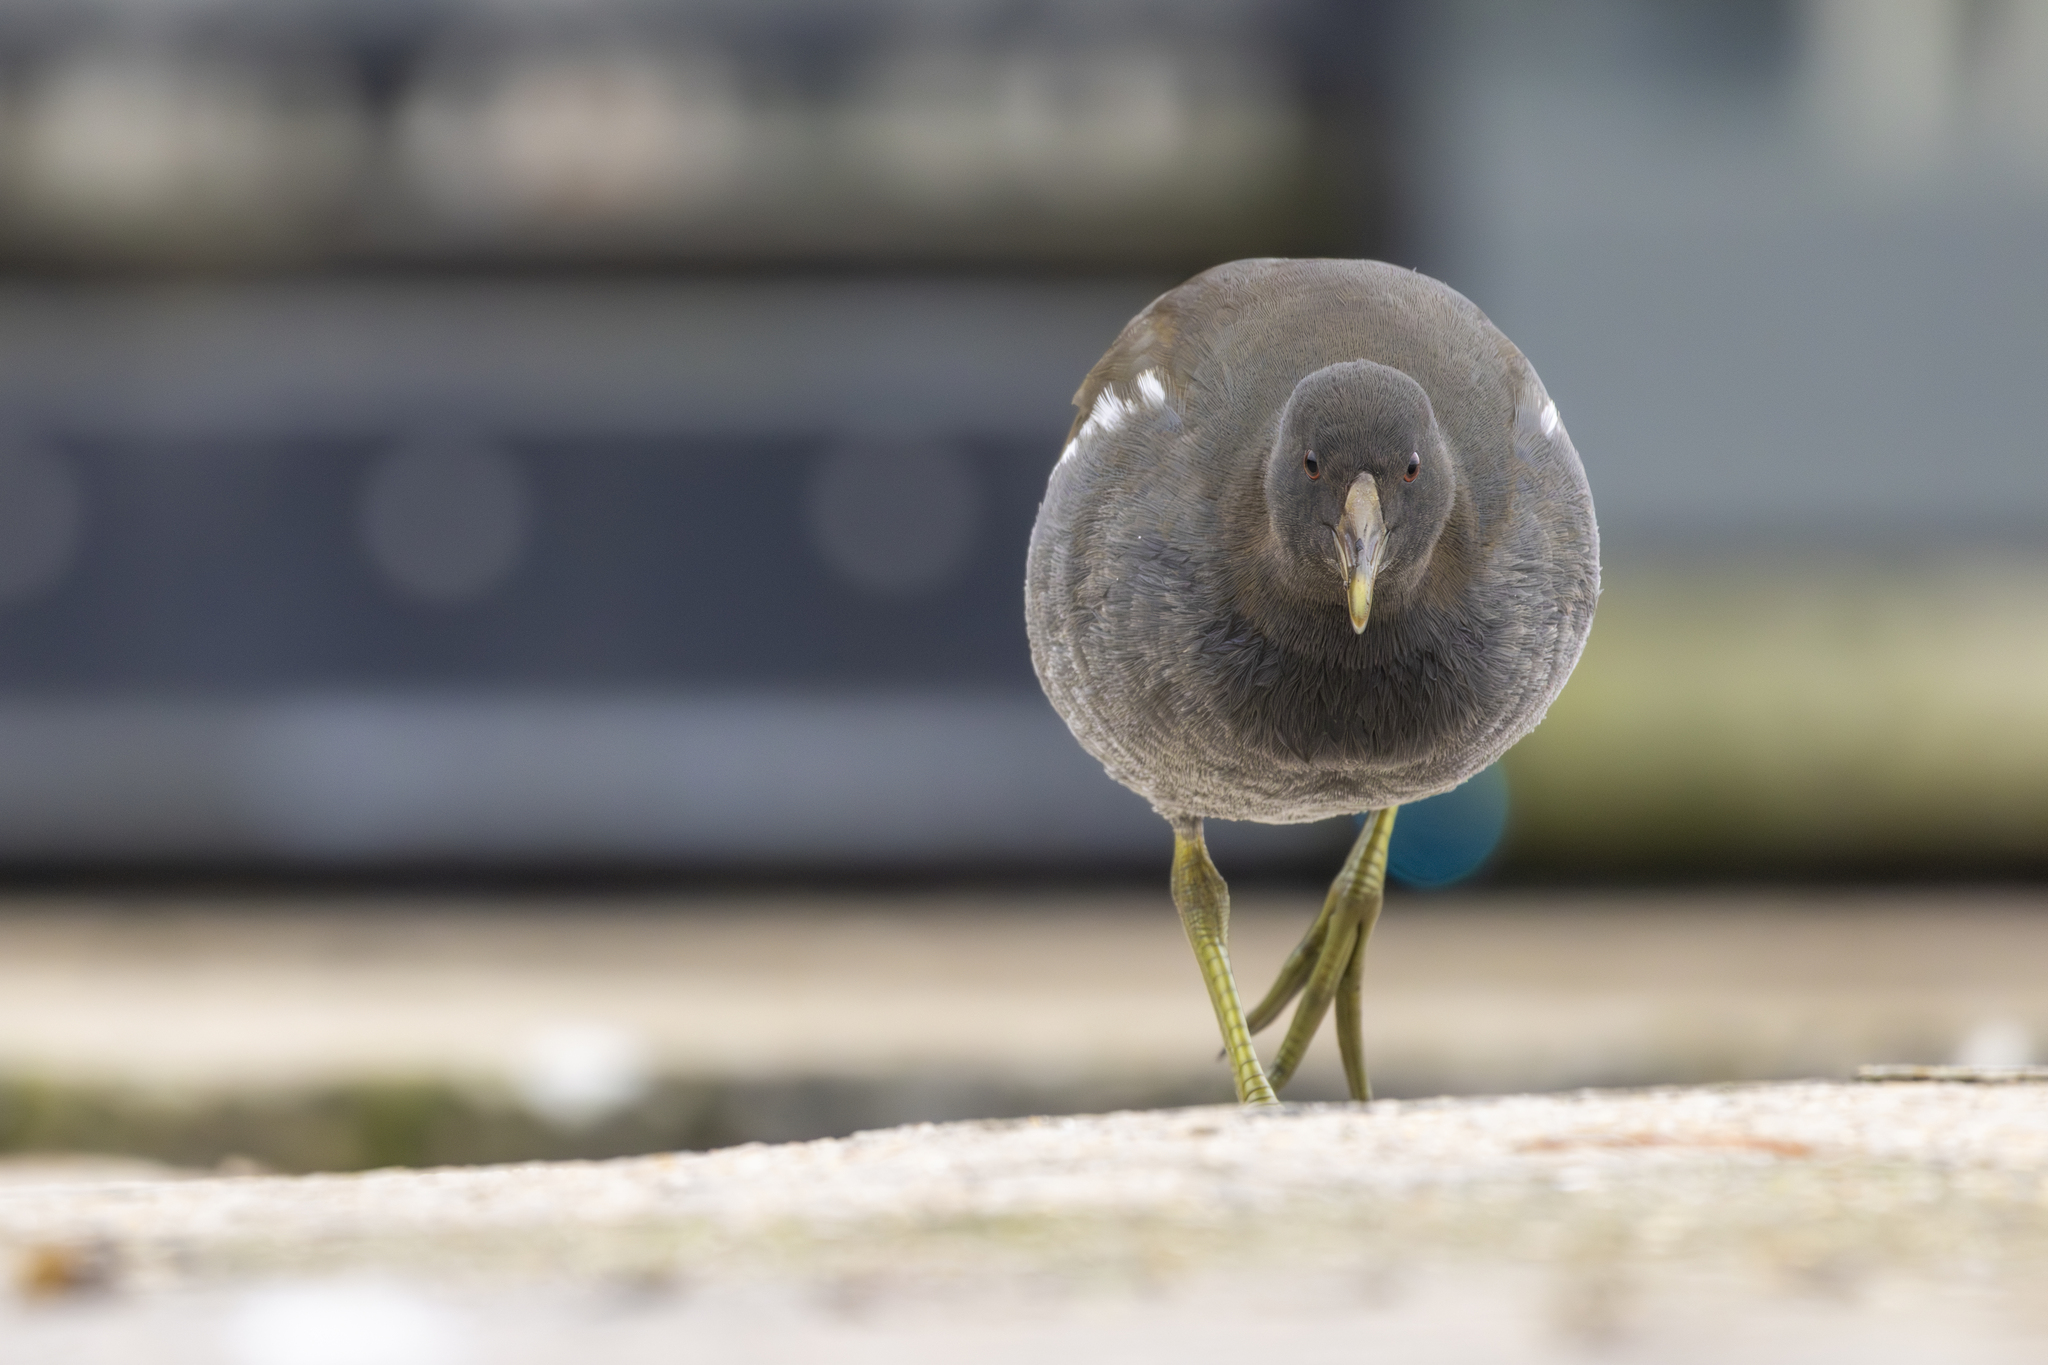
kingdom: Animalia
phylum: Chordata
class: Aves
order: Gruiformes
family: Rallidae
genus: Gallinula
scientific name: Gallinula chloropus
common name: Common moorhen
